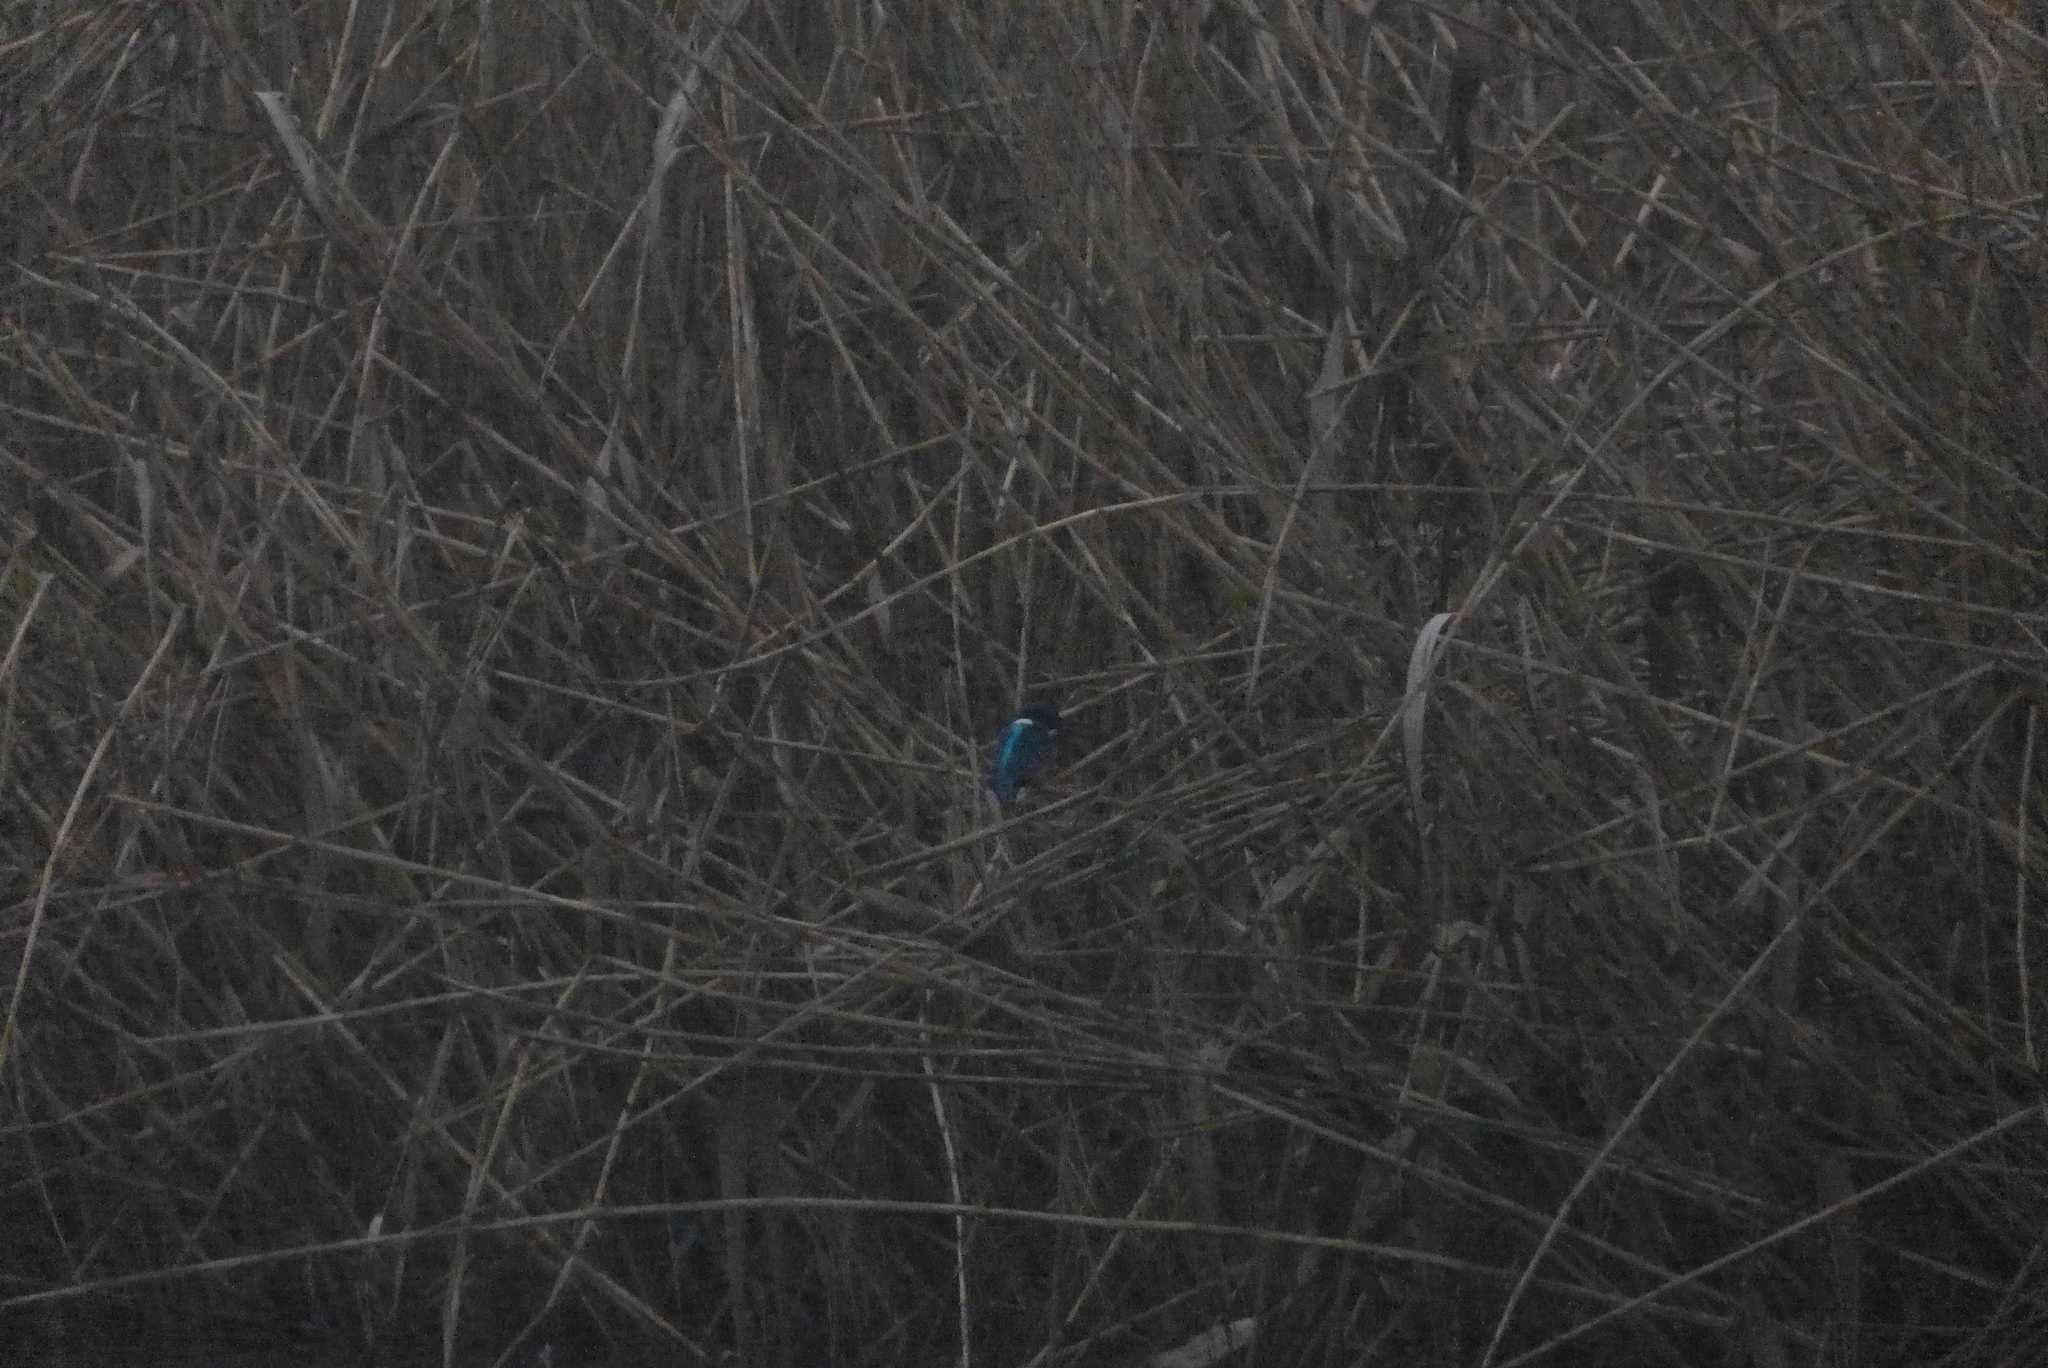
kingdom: Animalia
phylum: Chordata
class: Aves
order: Coraciiformes
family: Alcedinidae
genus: Alcedo
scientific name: Alcedo atthis
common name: Common kingfisher
